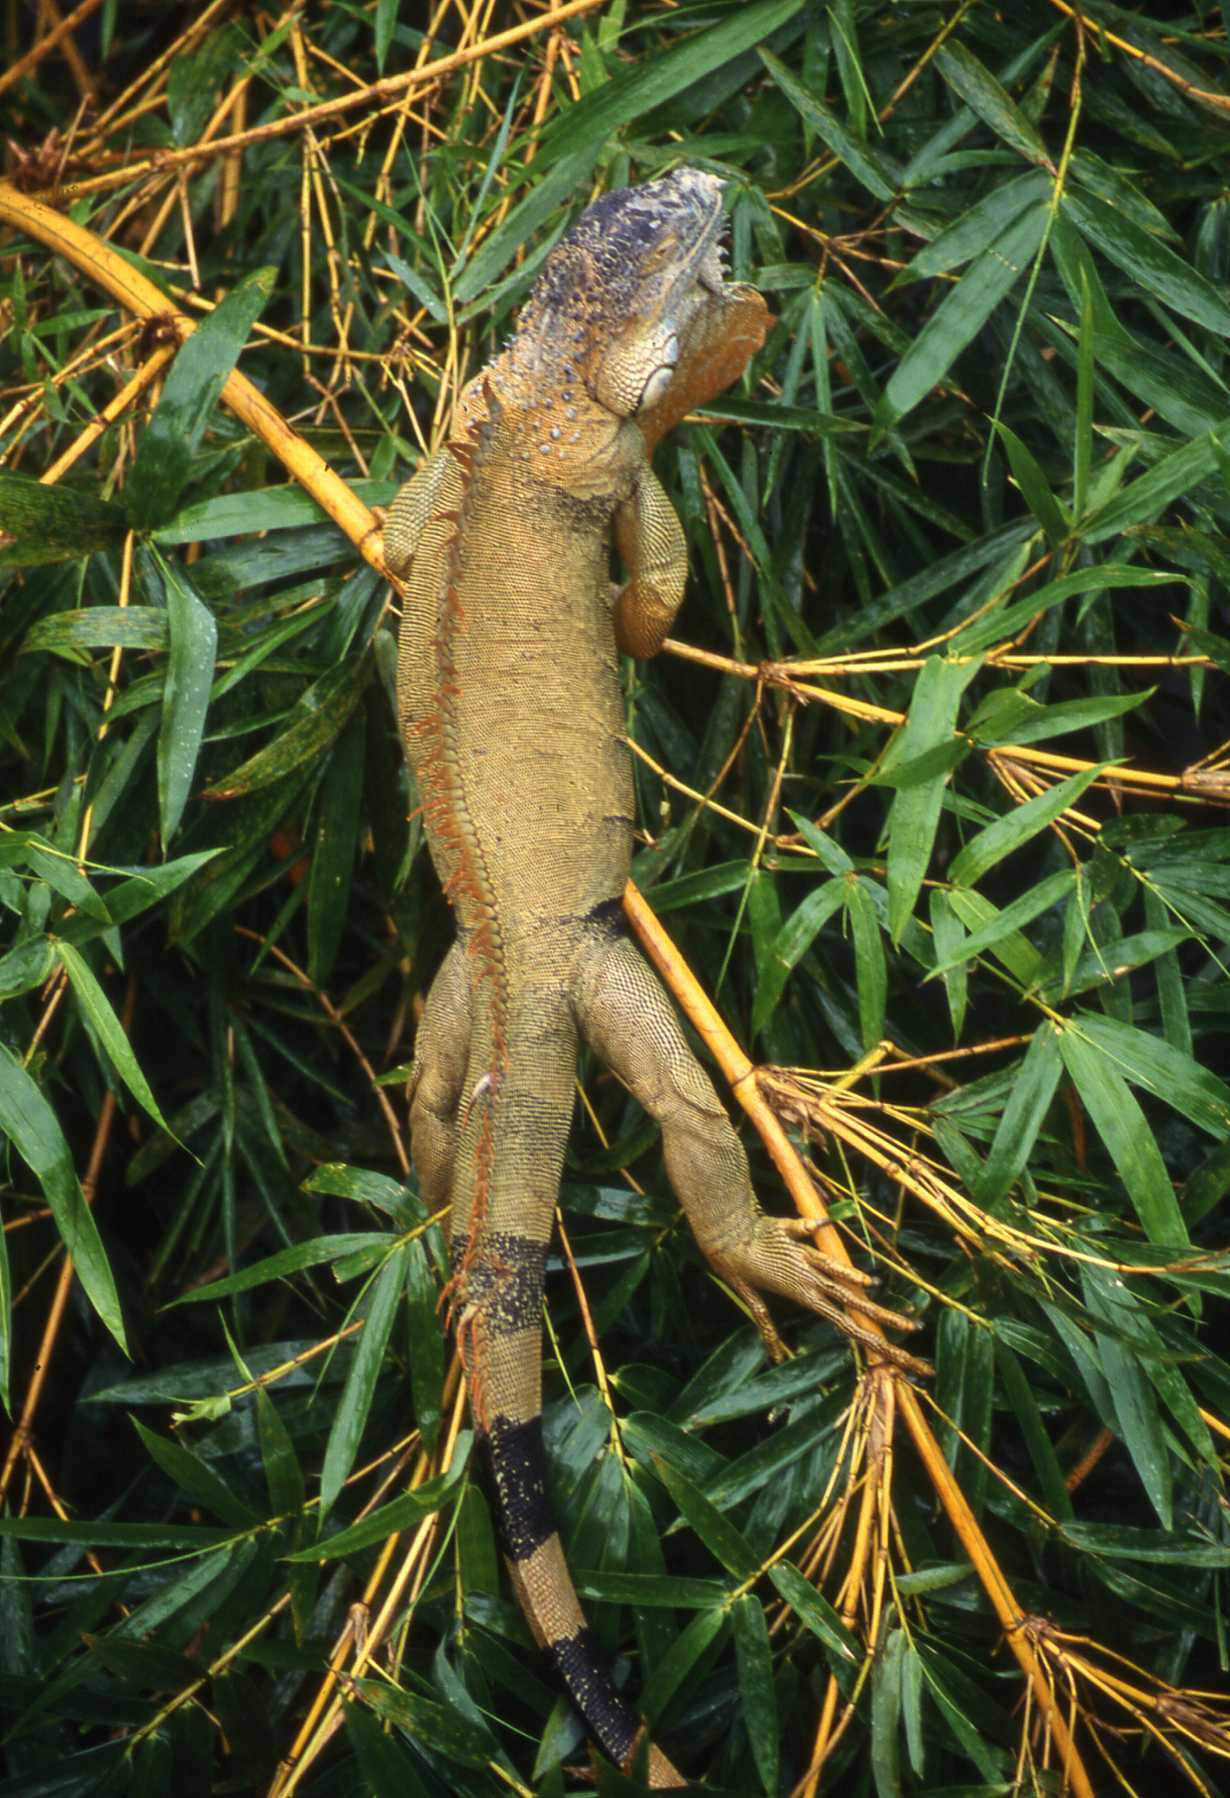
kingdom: Animalia
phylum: Chordata
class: Squamata
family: Iguanidae
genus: Iguana
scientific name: Iguana iguana
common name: Green iguana
